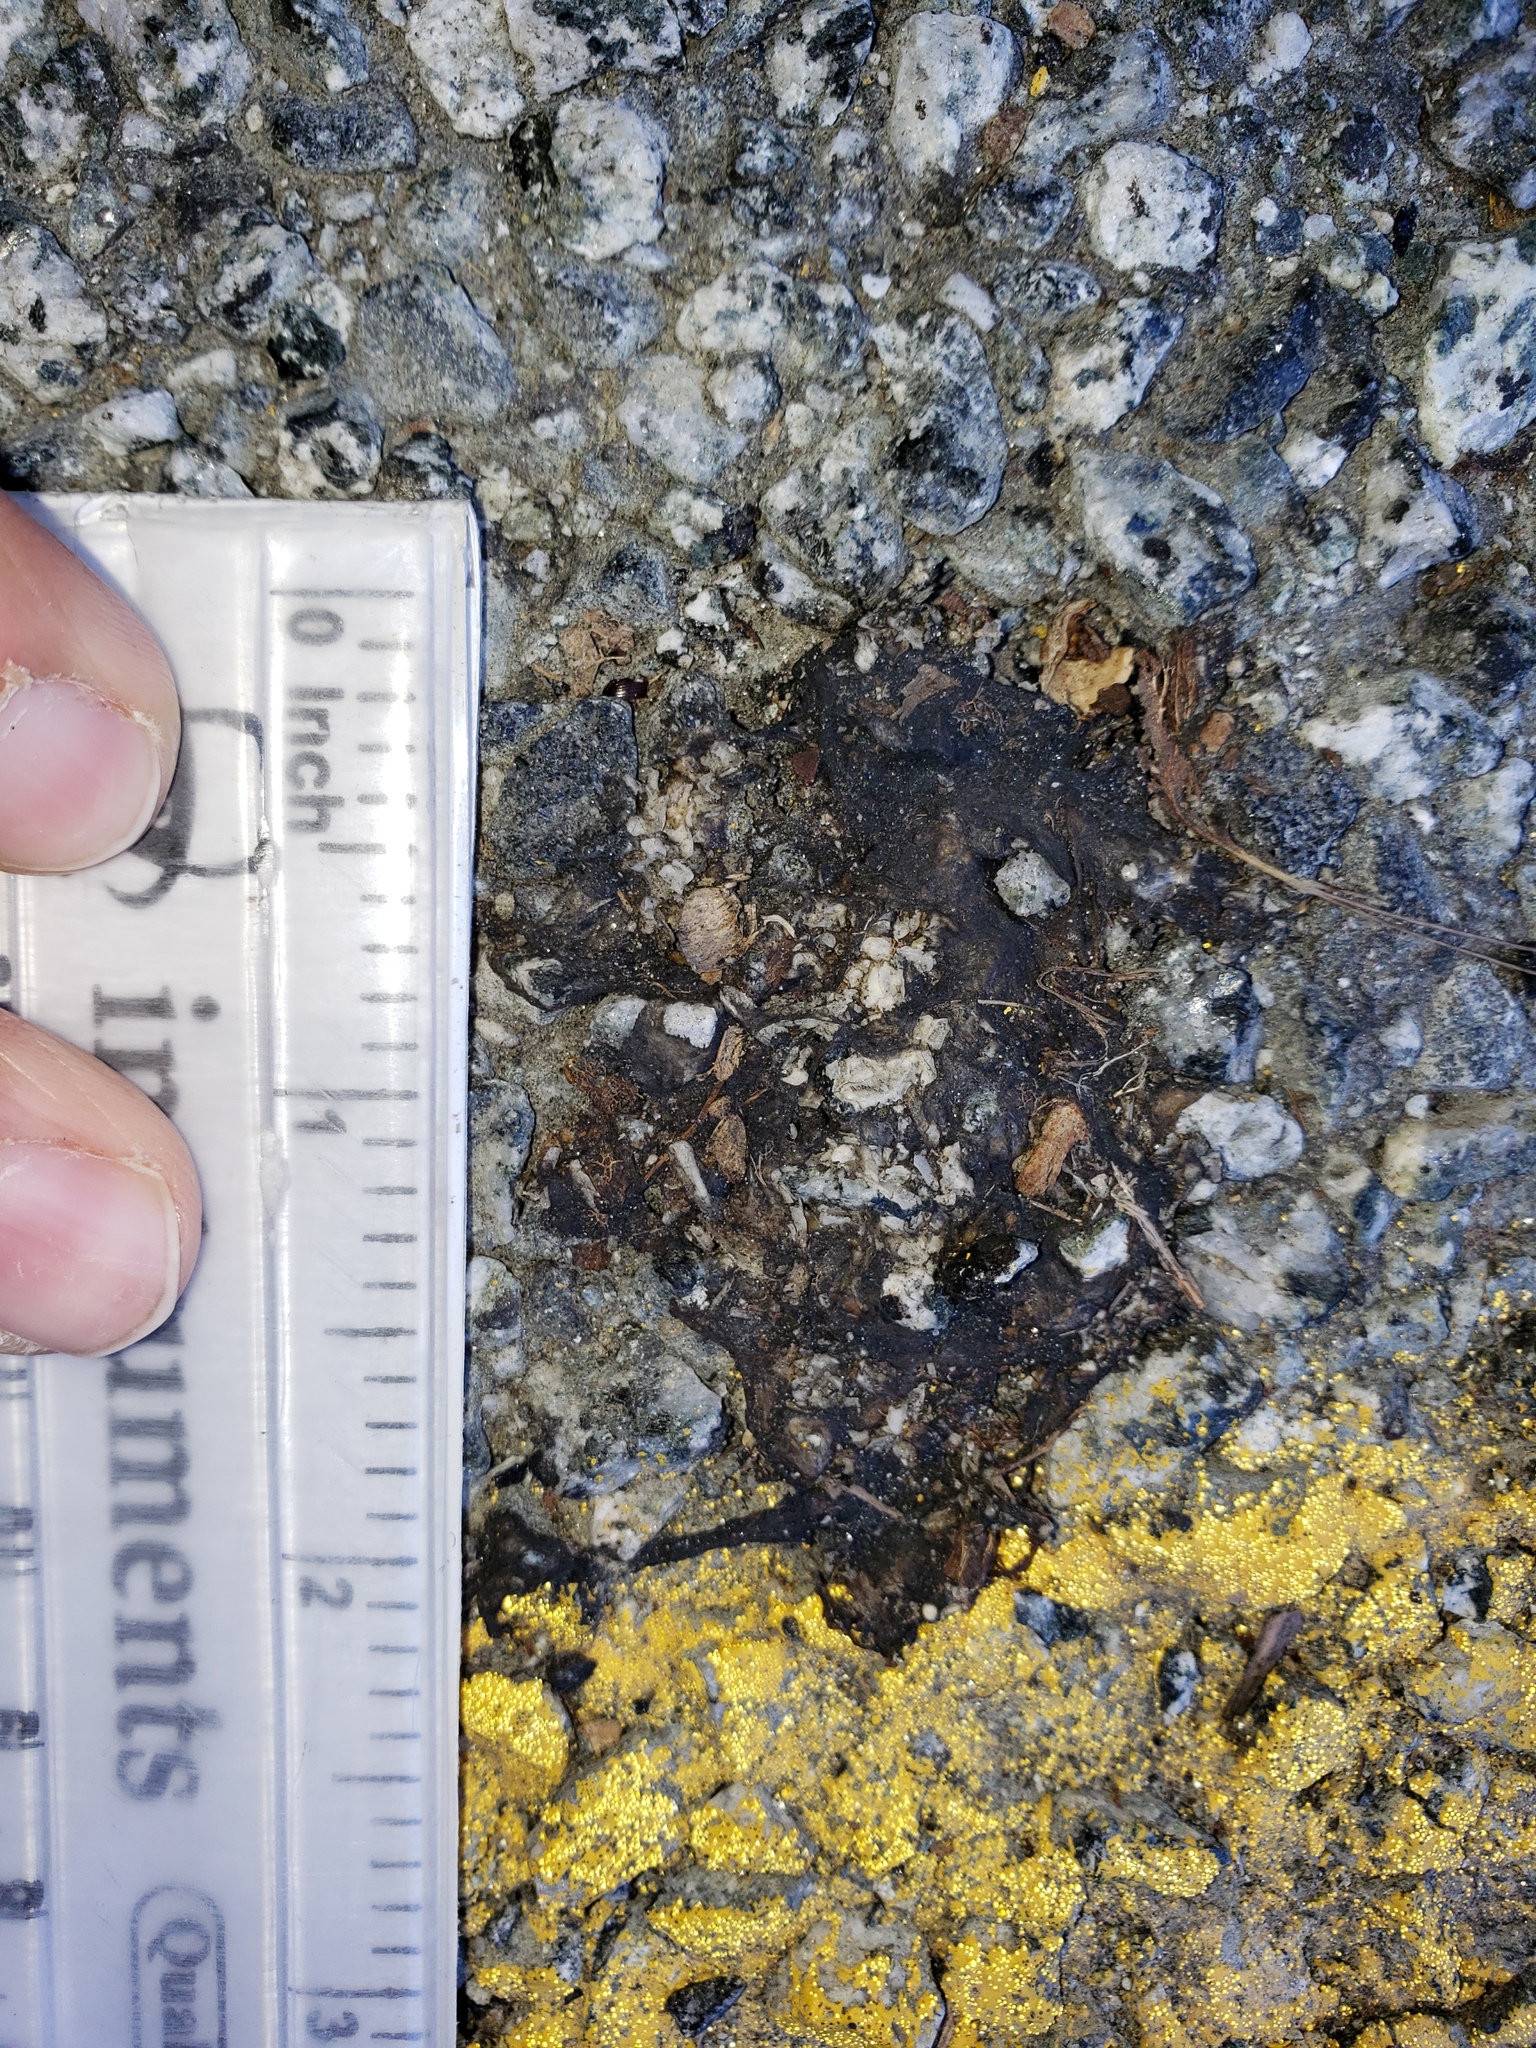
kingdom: Animalia
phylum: Chordata
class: Amphibia
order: Caudata
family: Salamandridae
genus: Taricha
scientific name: Taricha
